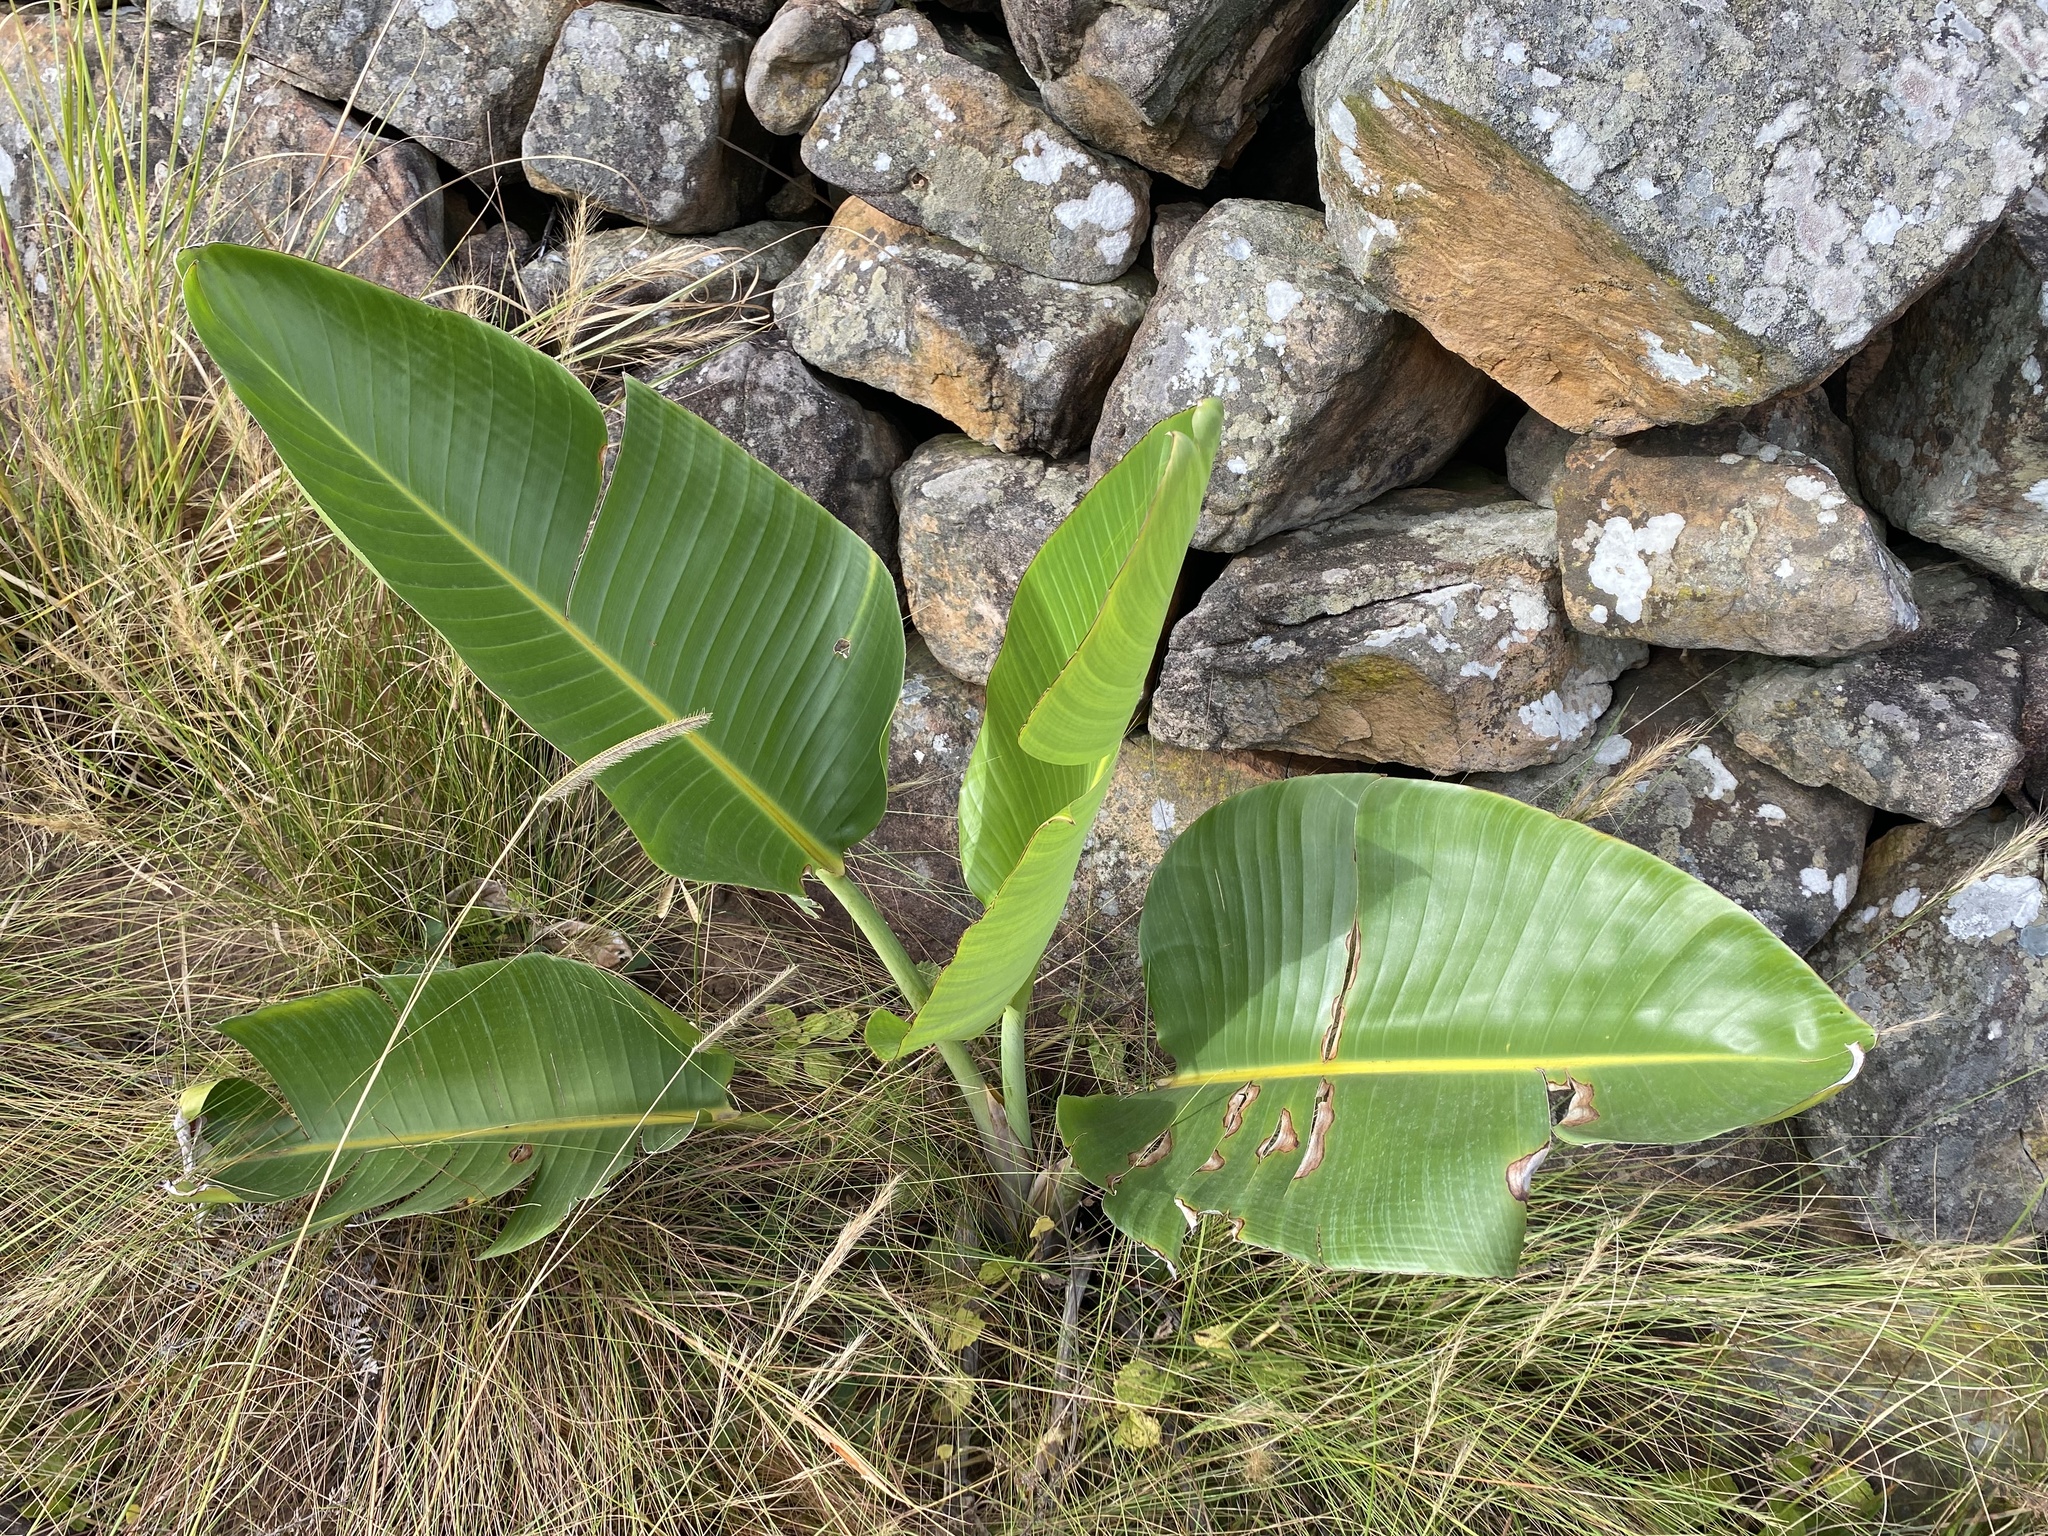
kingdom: Plantae
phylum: Tracheophyta
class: Liliopsida
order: Zingiberales
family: Strelitziaceae
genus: Strelitzia
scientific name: Strelitzia nicolai
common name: Bird-of-paradise tree
